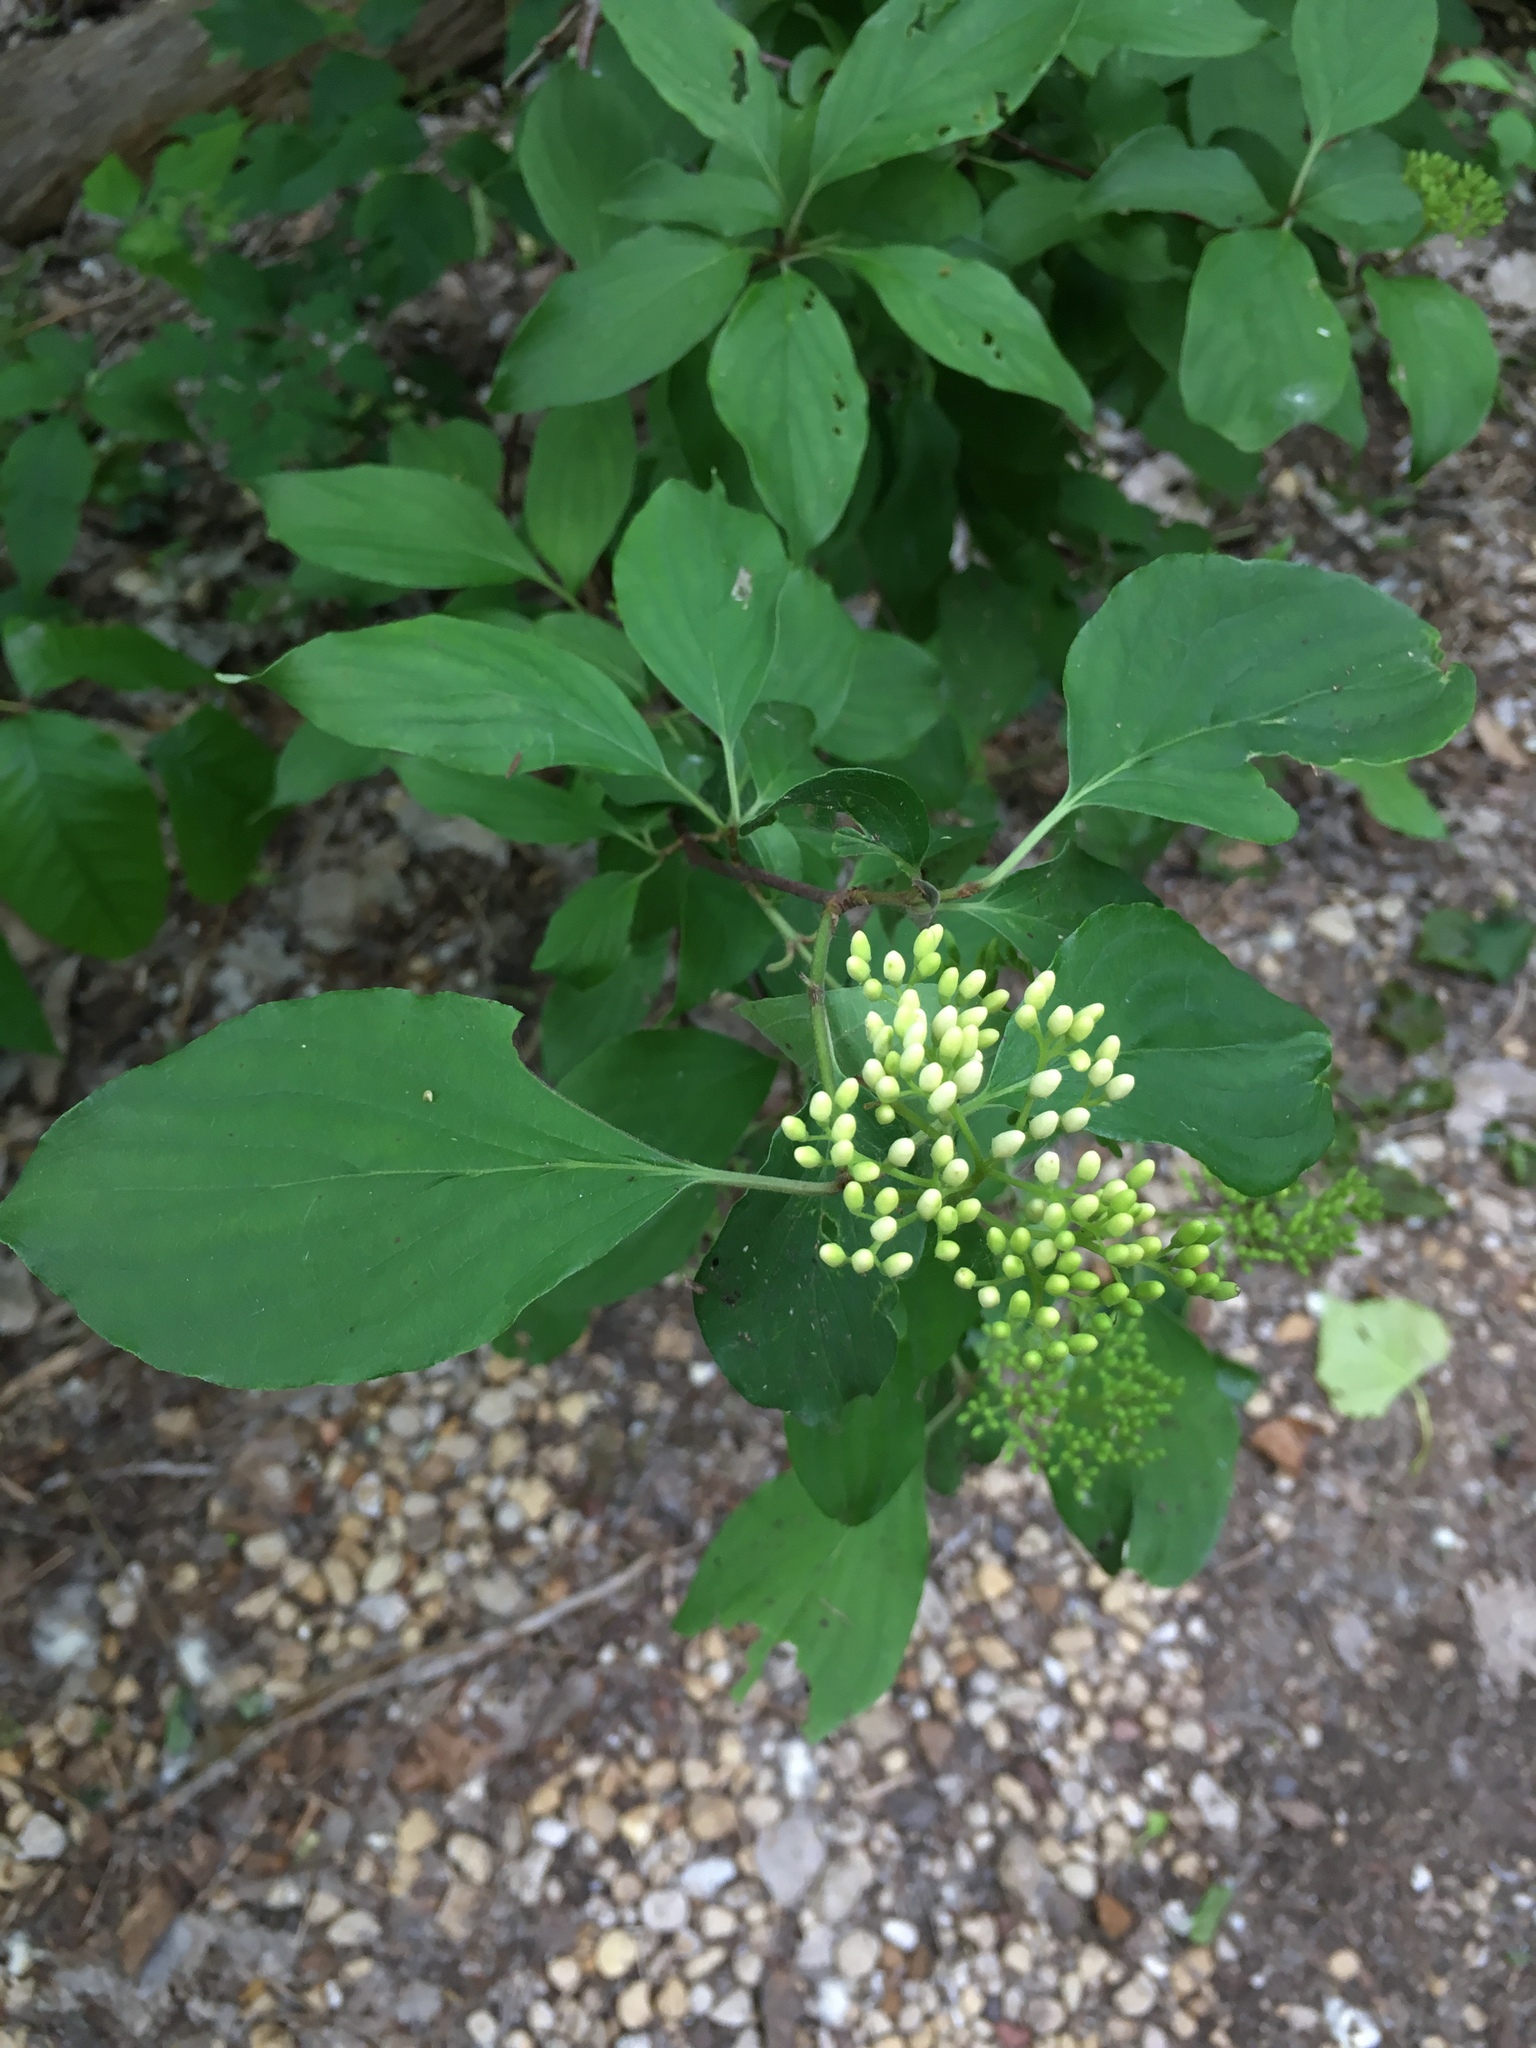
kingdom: Plantae
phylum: Tracheophyta
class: Magnoliopsida
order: Cornales
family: Cornaceae
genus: Cornus
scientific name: Cornus drummondii
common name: Rough-leaf dogwood
